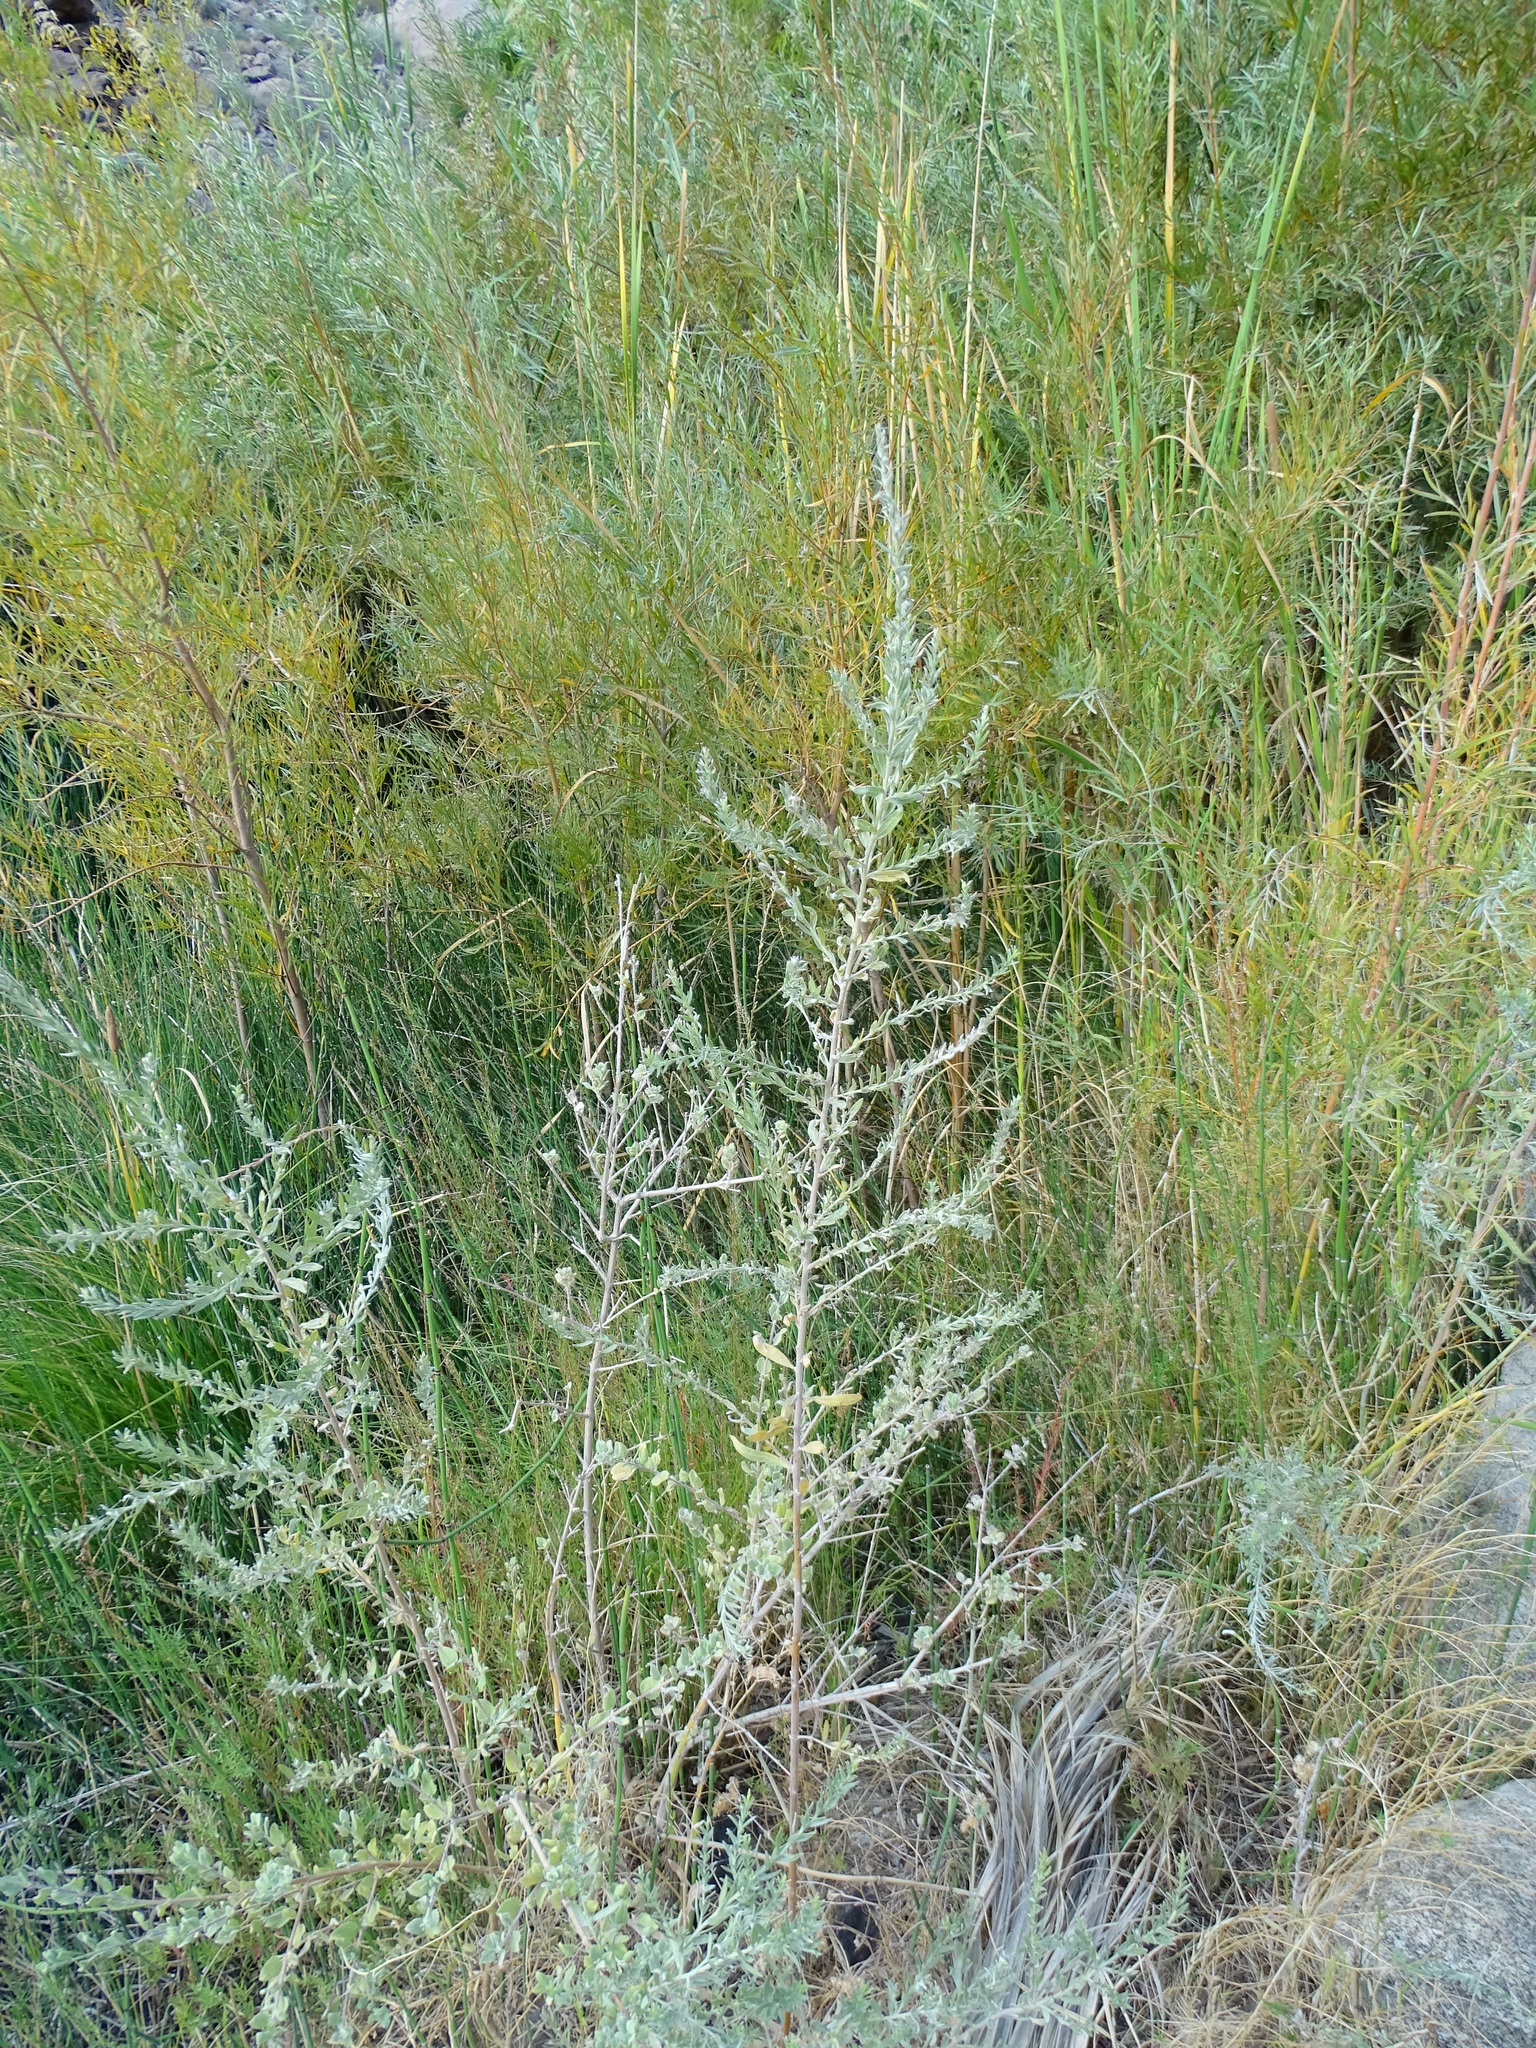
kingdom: Plantae
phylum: Tracheophyta
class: Magnoliopsida
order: Asterales
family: Asteraceae
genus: Pluchea
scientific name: Pluchea sericea
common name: Arrow-weed
